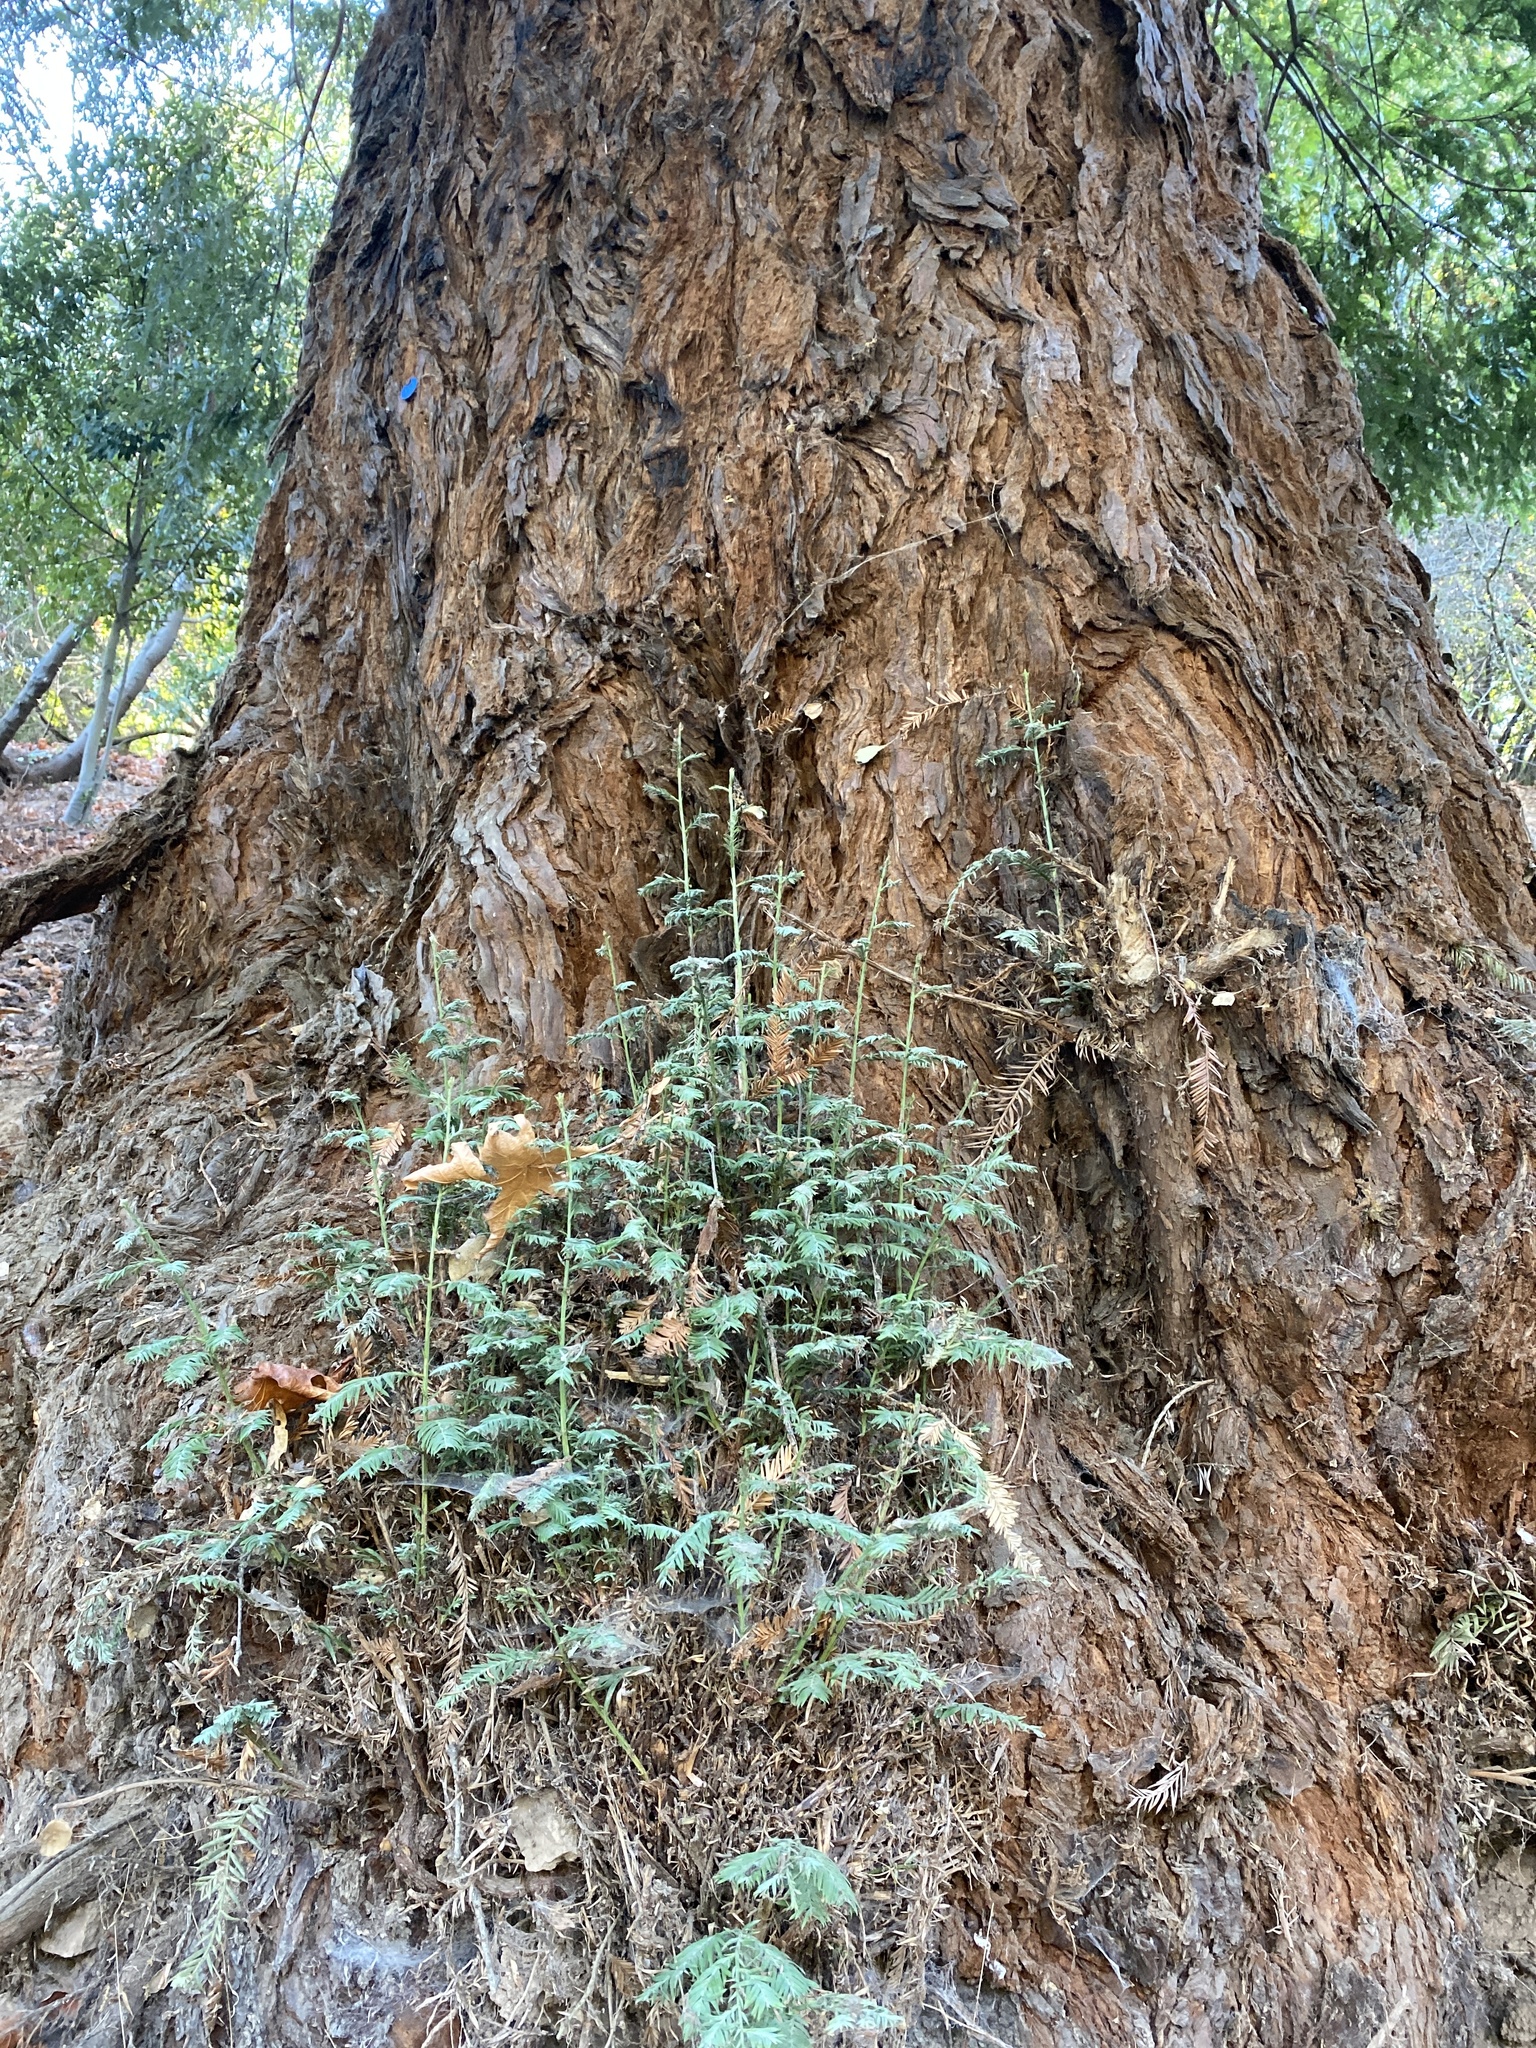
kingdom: Plantae
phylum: Tracheophyta
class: Pinopsida
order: Pinales
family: Cupressaceae
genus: Sequoia
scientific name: Sequoia sempervirens
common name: Coast redwood
